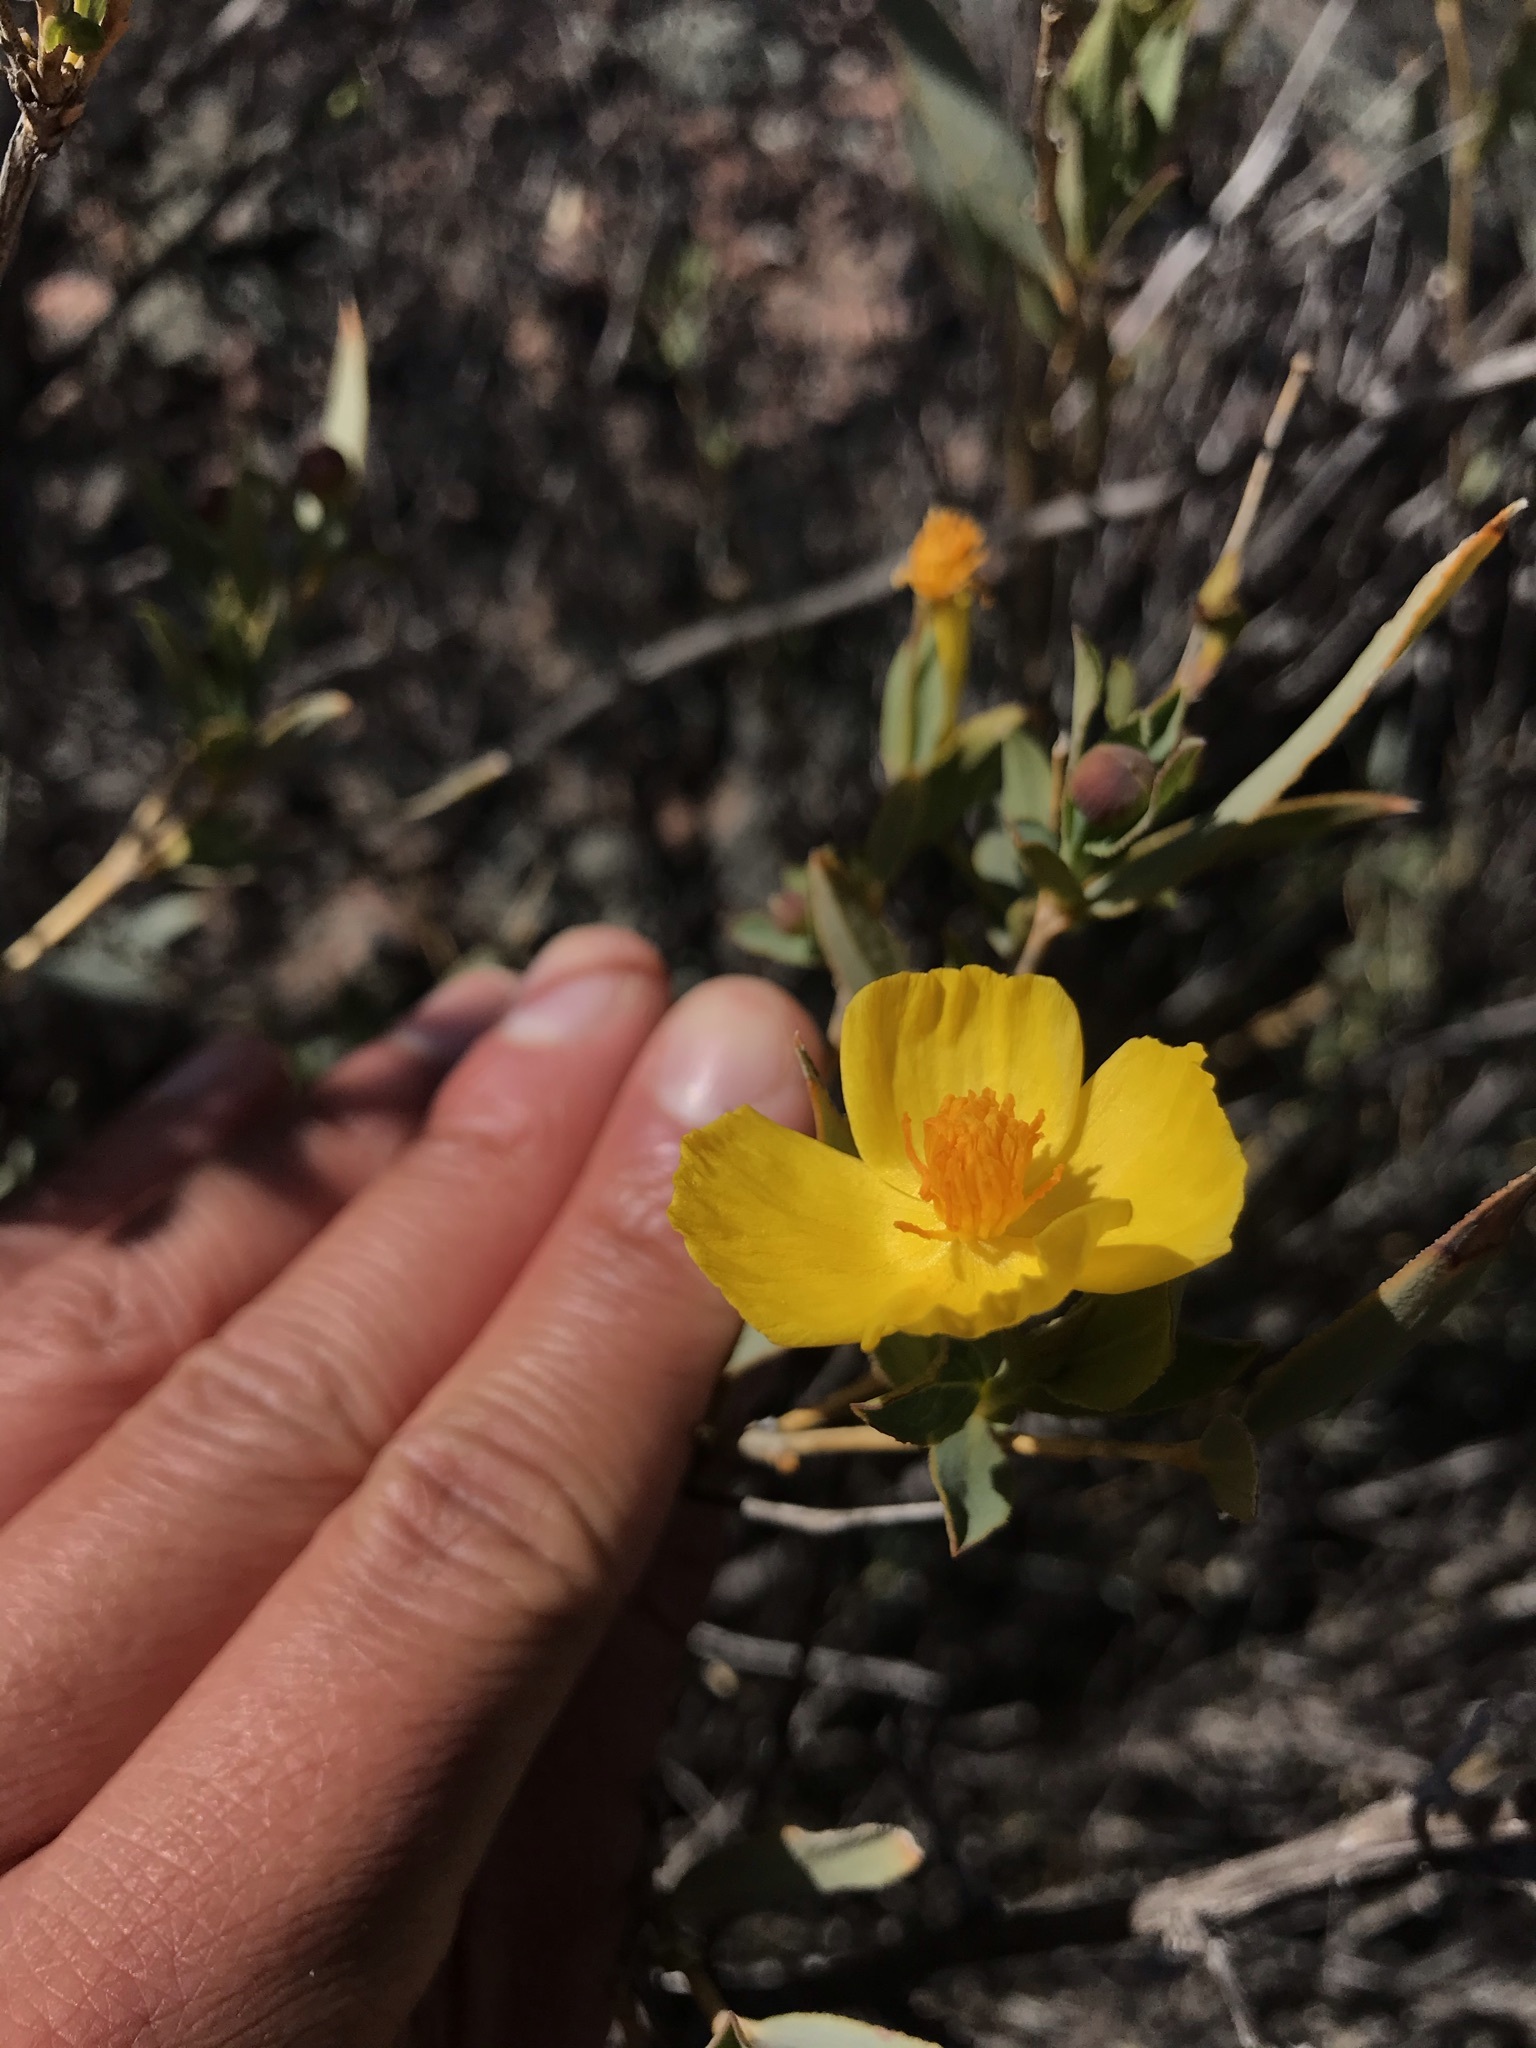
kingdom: Plantae
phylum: Tracheophyta
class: Magnoliopsida
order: Ranunculales
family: Papaveraceae
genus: Dendromecon
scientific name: Dendromecon rigida
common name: Tree poppy
